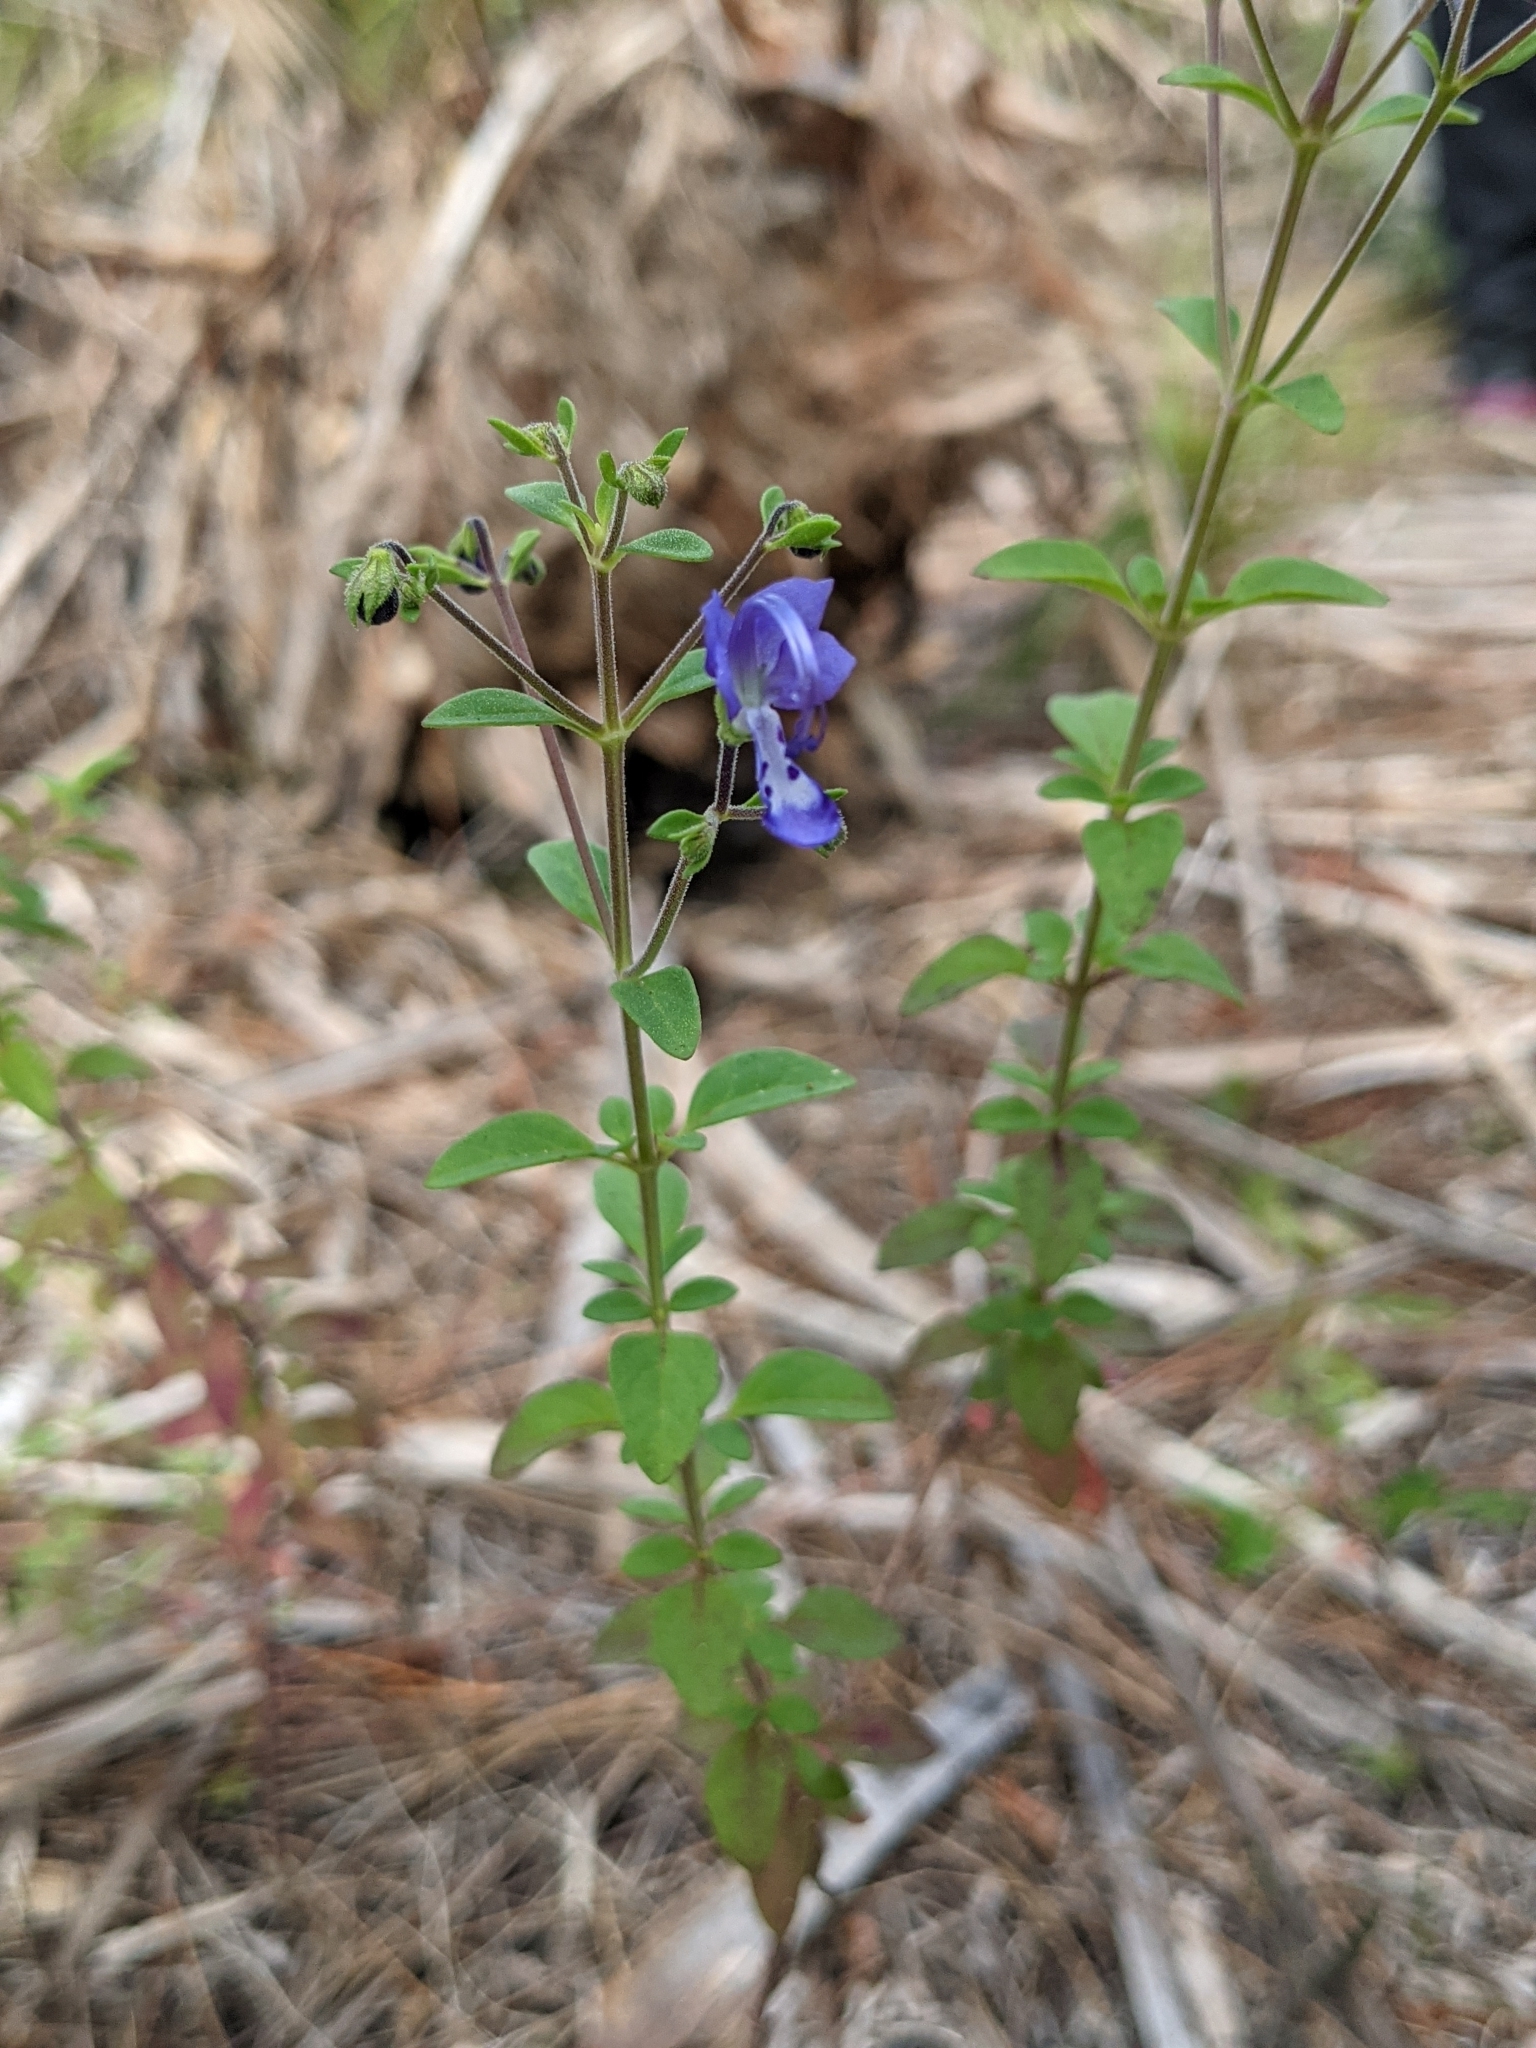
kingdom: Plantae
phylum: Tracheophyta
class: Magnoliopsida
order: Lamiales
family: Lamiaceae
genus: Trichostema
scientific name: Trichostema
